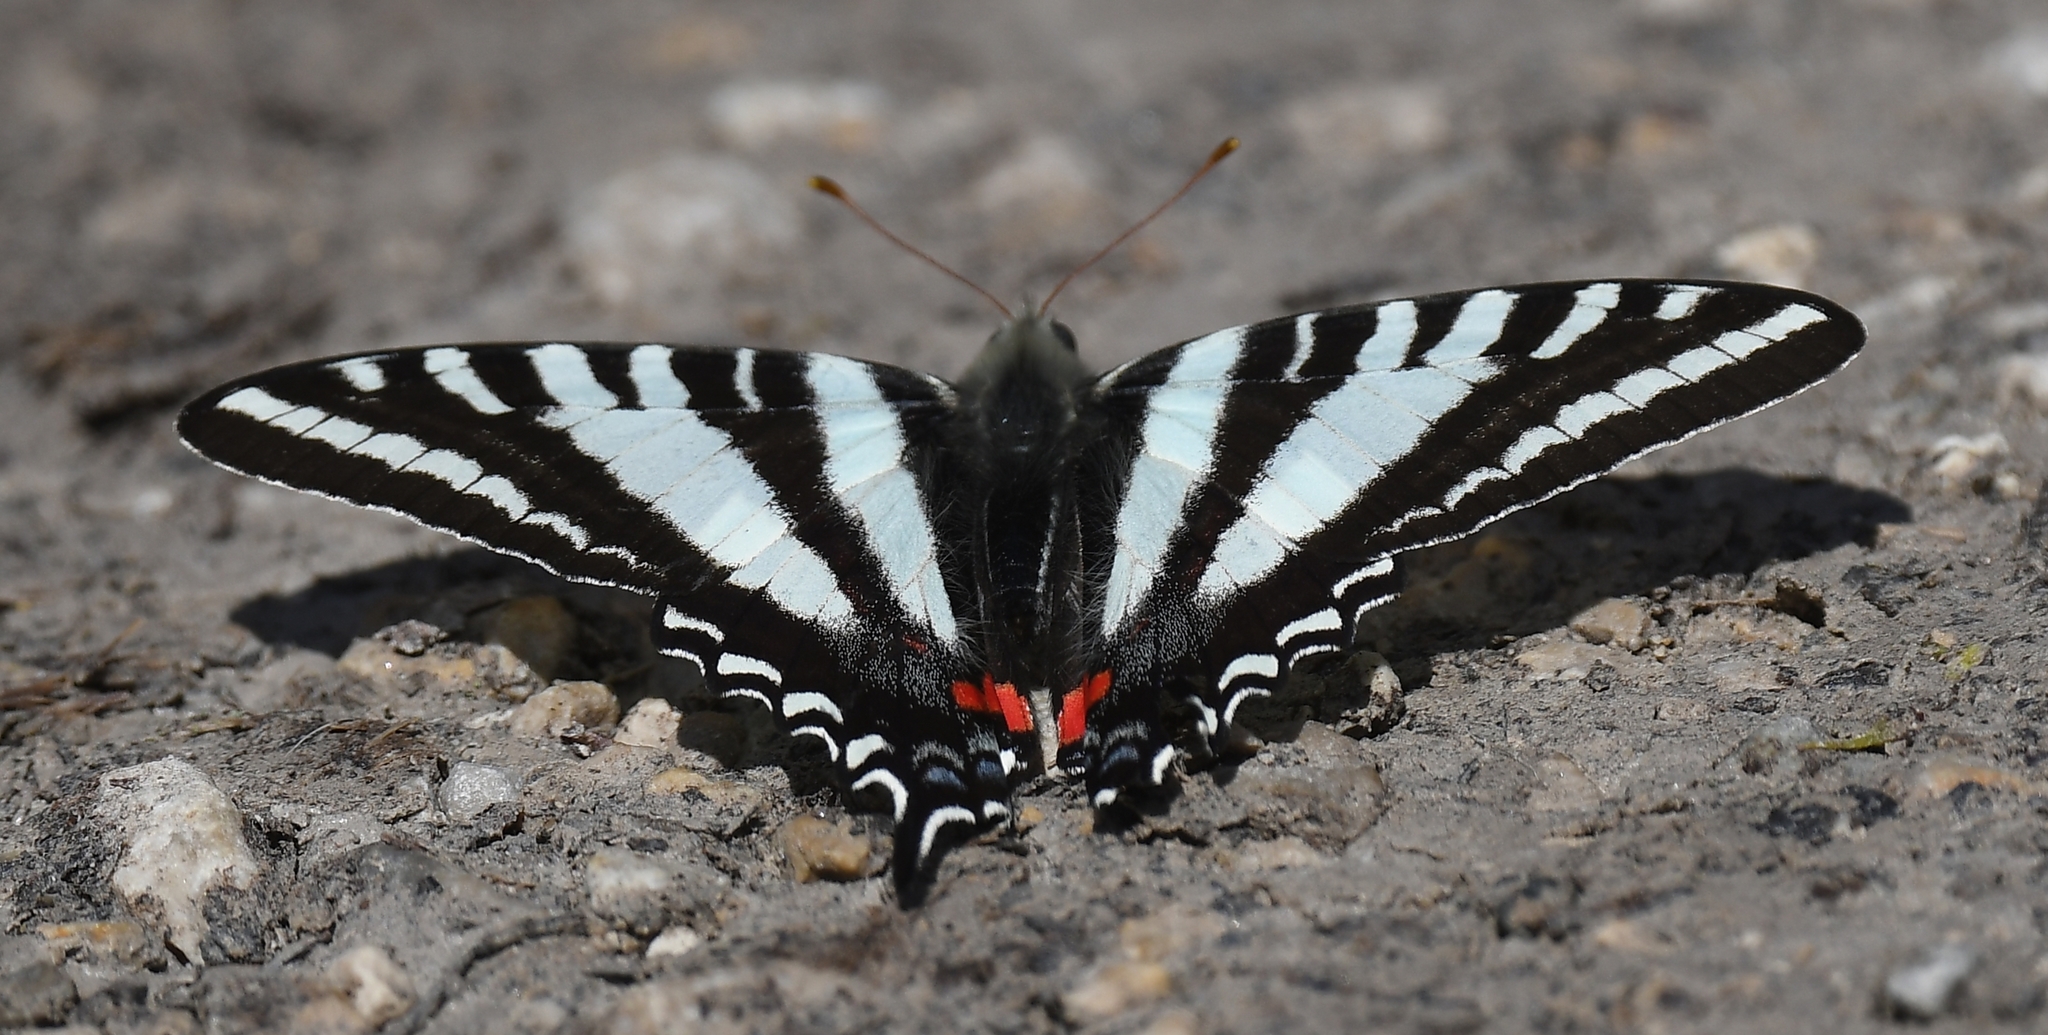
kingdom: Animalia
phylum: Arthropoda
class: Insecta
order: Lepidoptera
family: Papilionidae
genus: Protographium
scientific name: Protographium marcellus
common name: Zebra swallowtail
